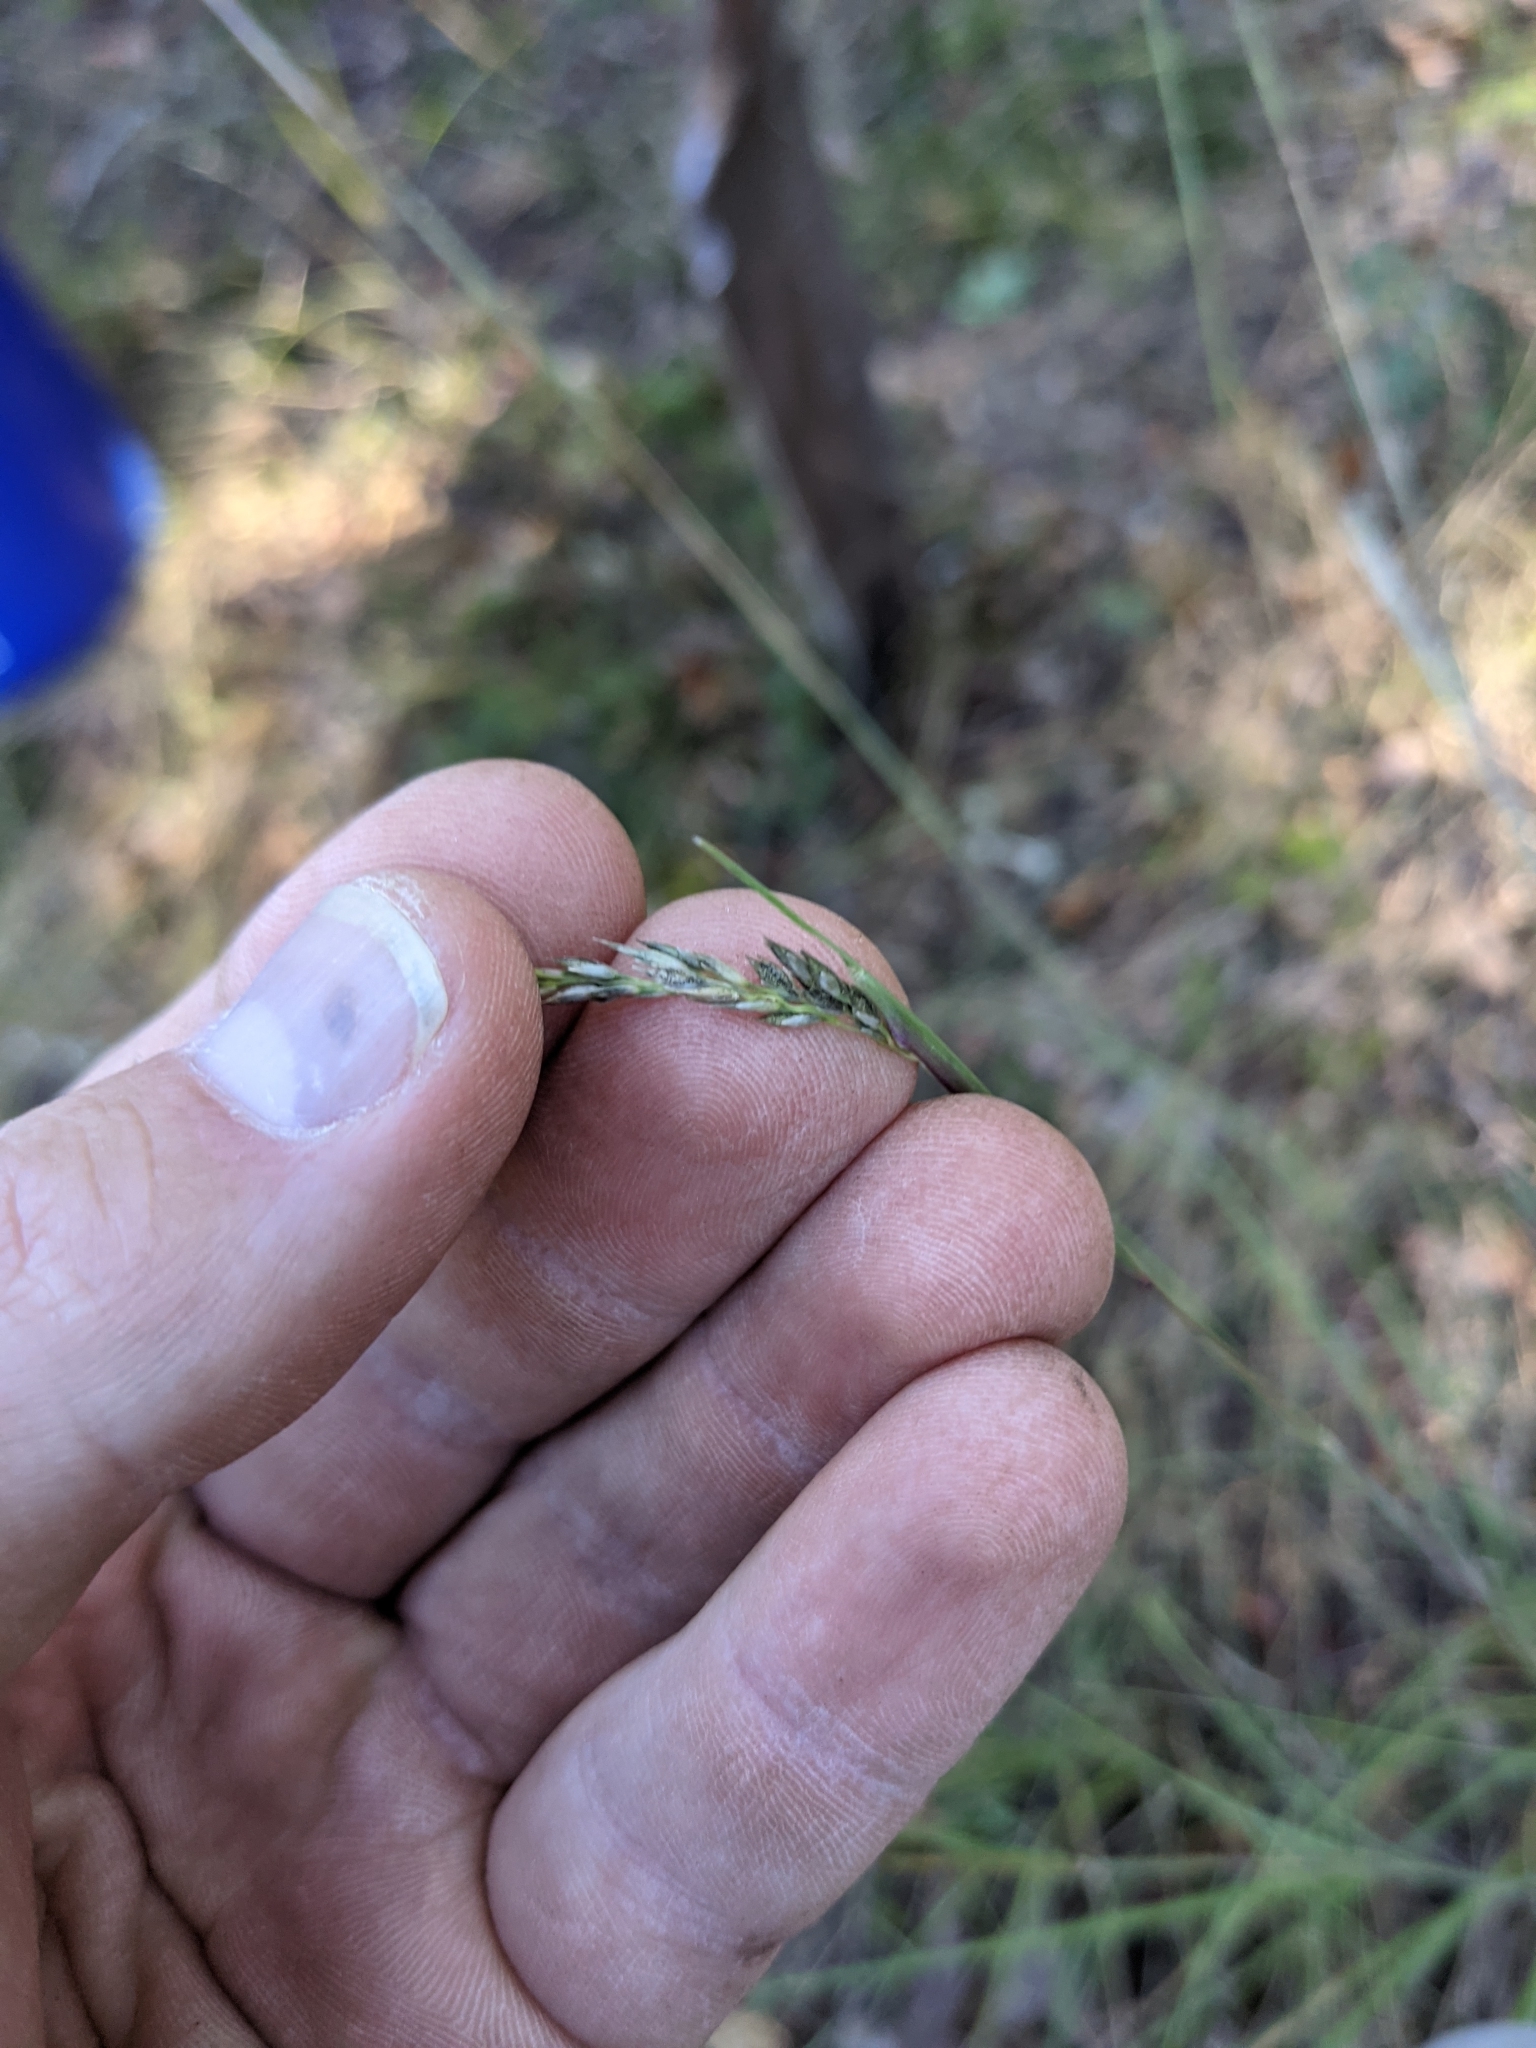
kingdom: Plantae
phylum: Tracheophyta
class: Liliopsida
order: Poales
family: Poaceae
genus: Sporobolus
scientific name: Sporobolus clandestinus
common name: Hidden dropseed
